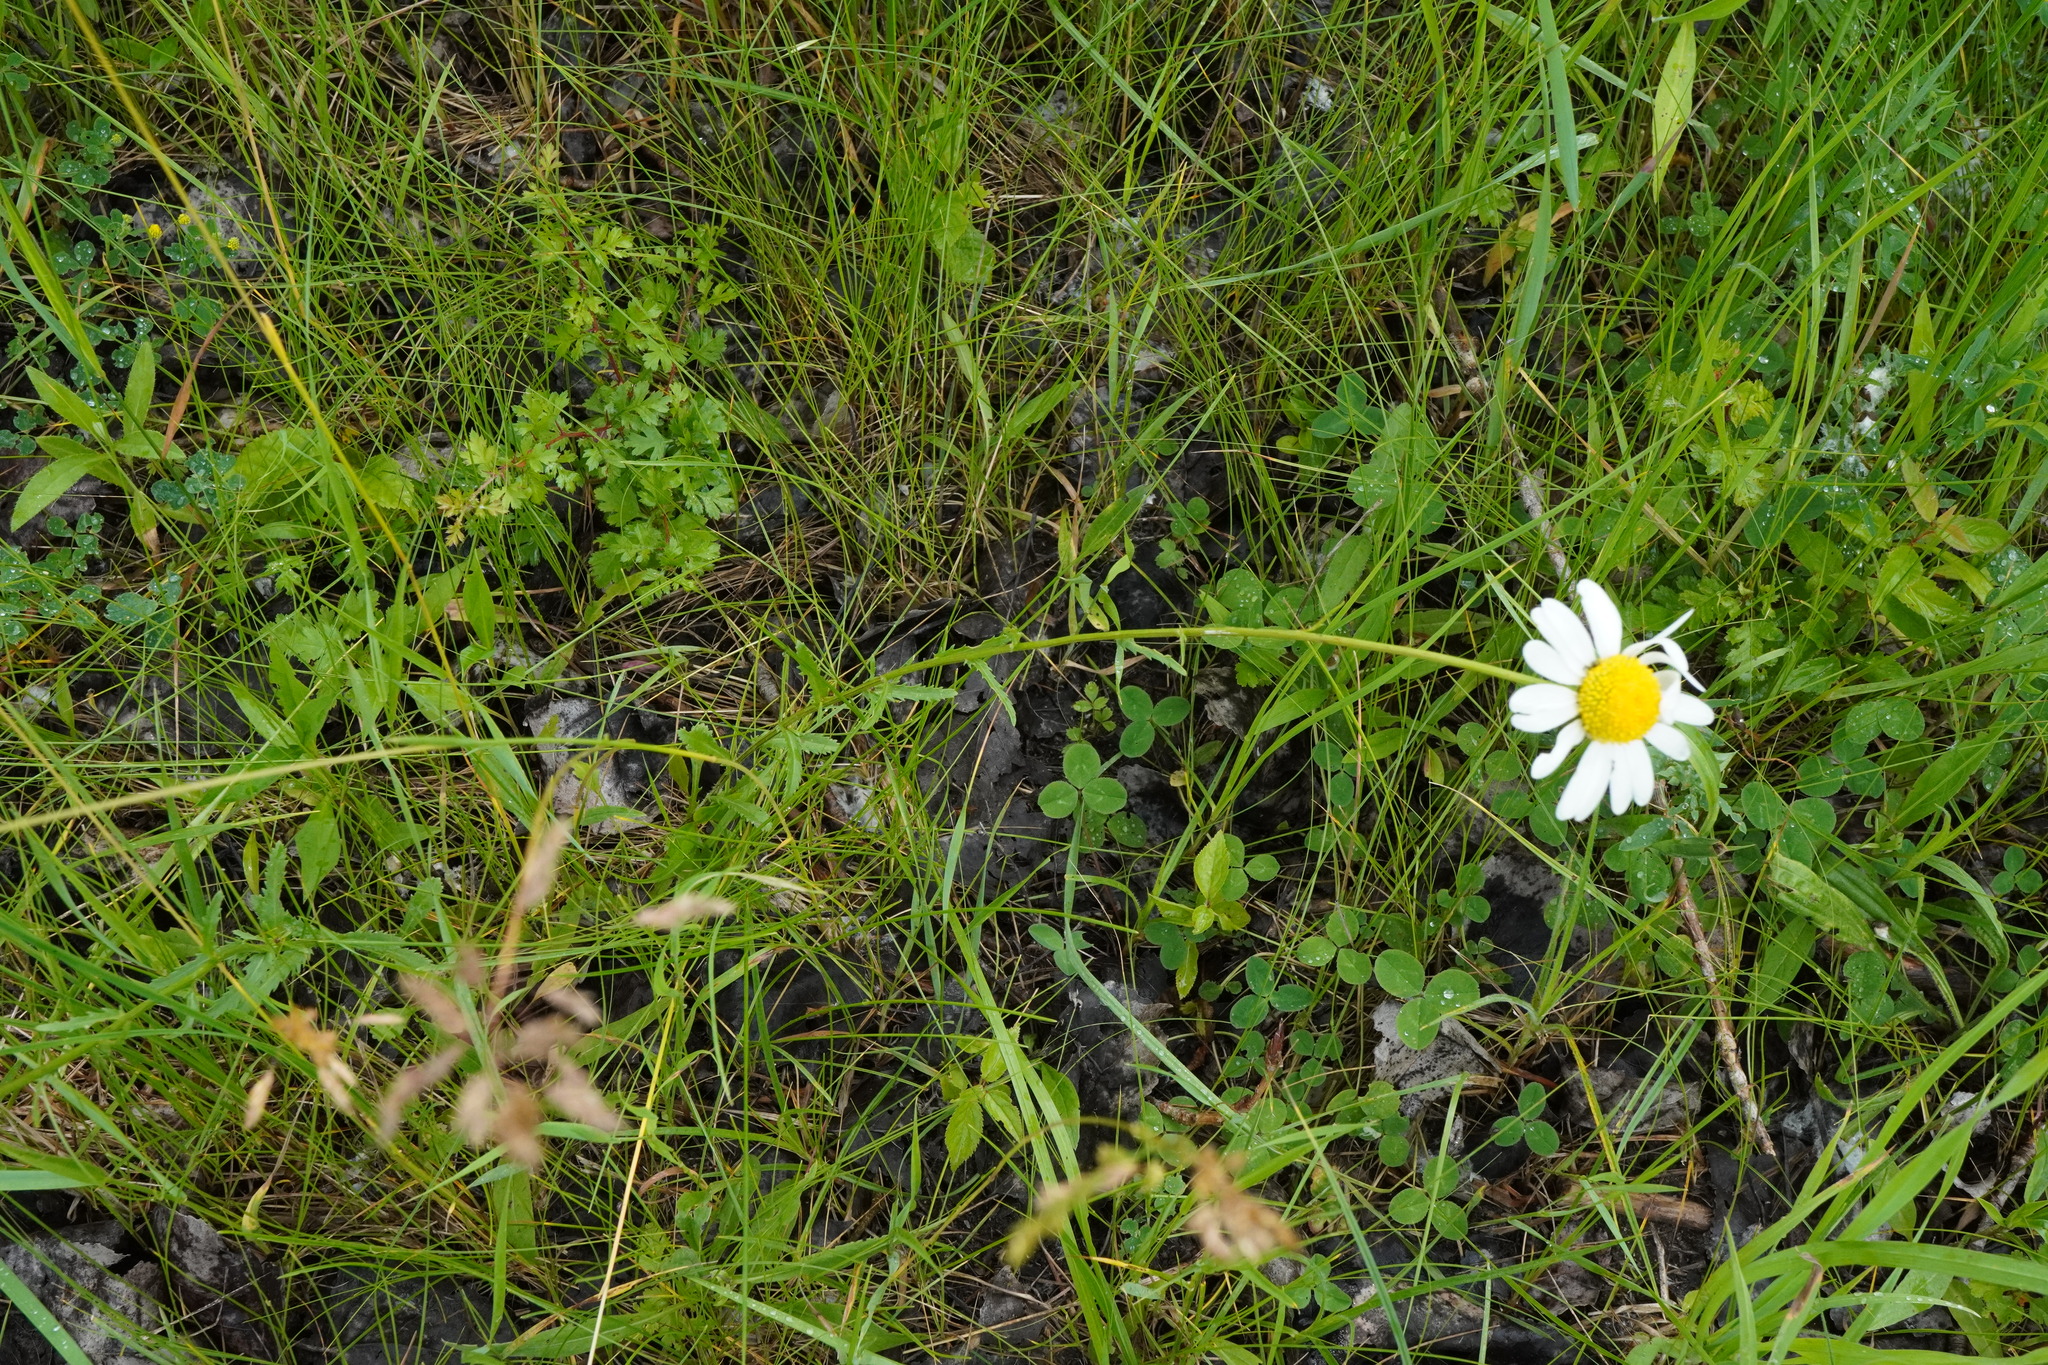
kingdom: Plantae
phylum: Tracheophyta
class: Magnoliopsida
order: Asterales
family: Asteraceae
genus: Leucanthemum
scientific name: Leucanthemum ircutianum
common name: Daisy
